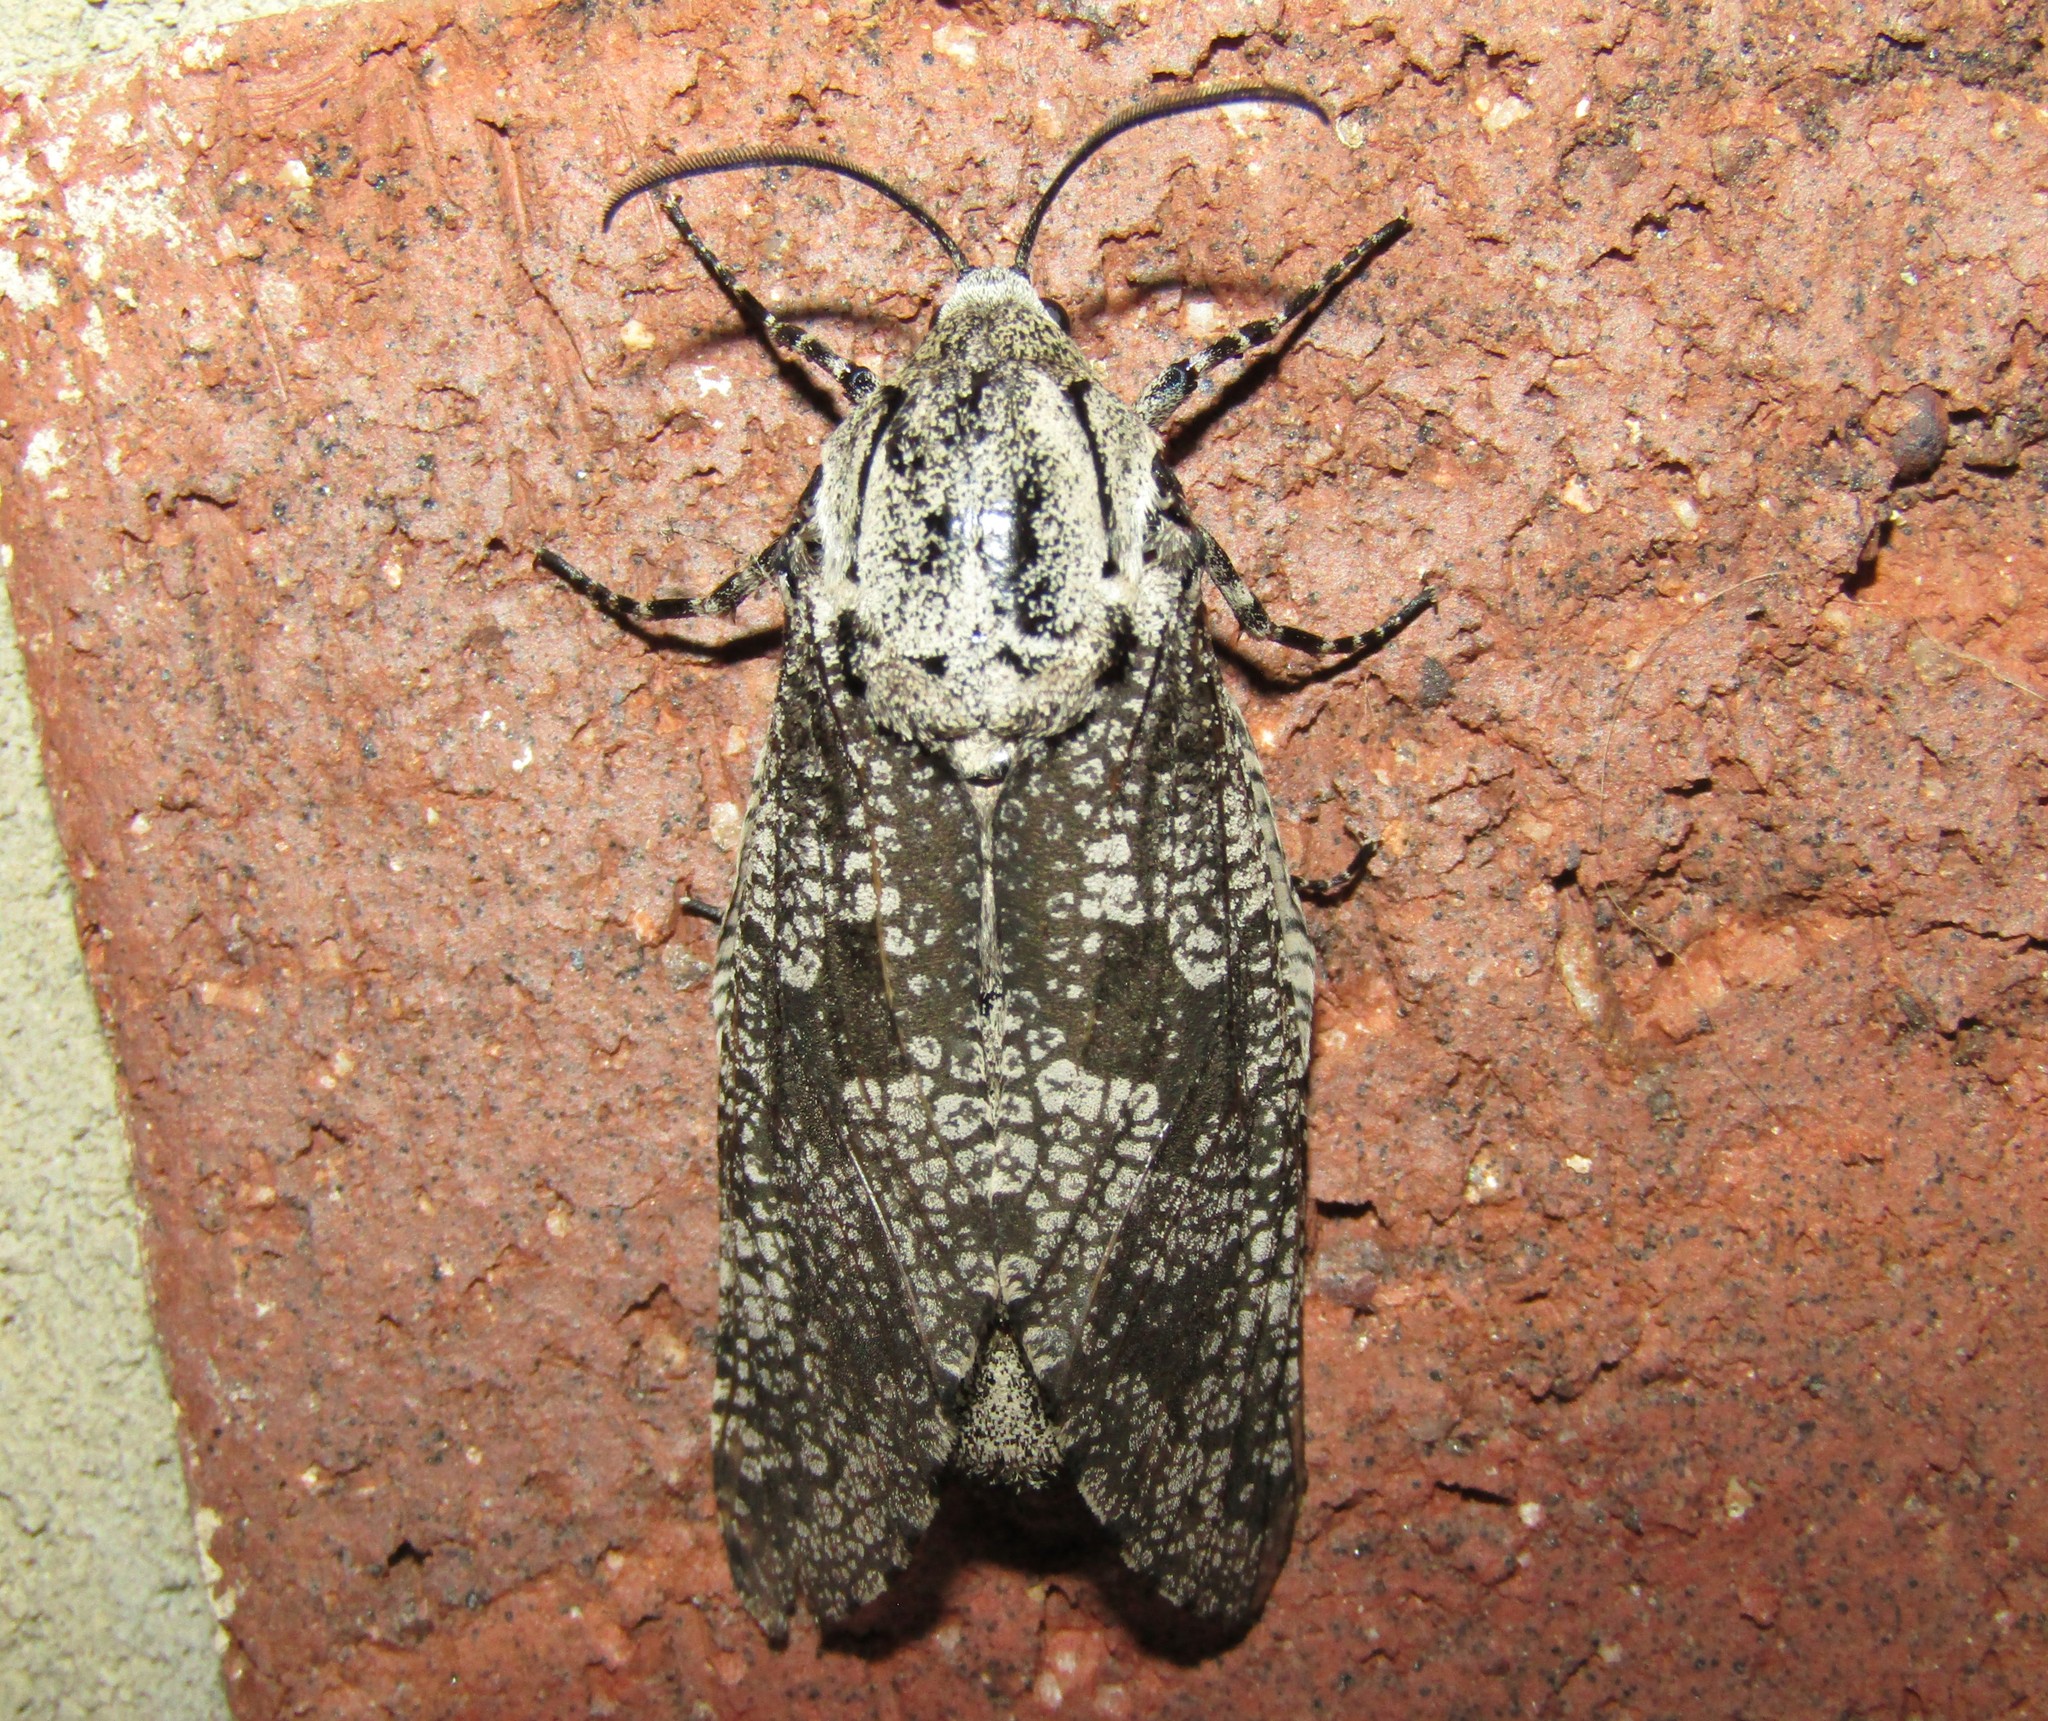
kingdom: Animalia
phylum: Arthropoda
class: Insecta
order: Lepidoptera
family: Cossidae
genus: Prionoxystus
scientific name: Prionoxystus robiniae
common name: Carpenterworm
